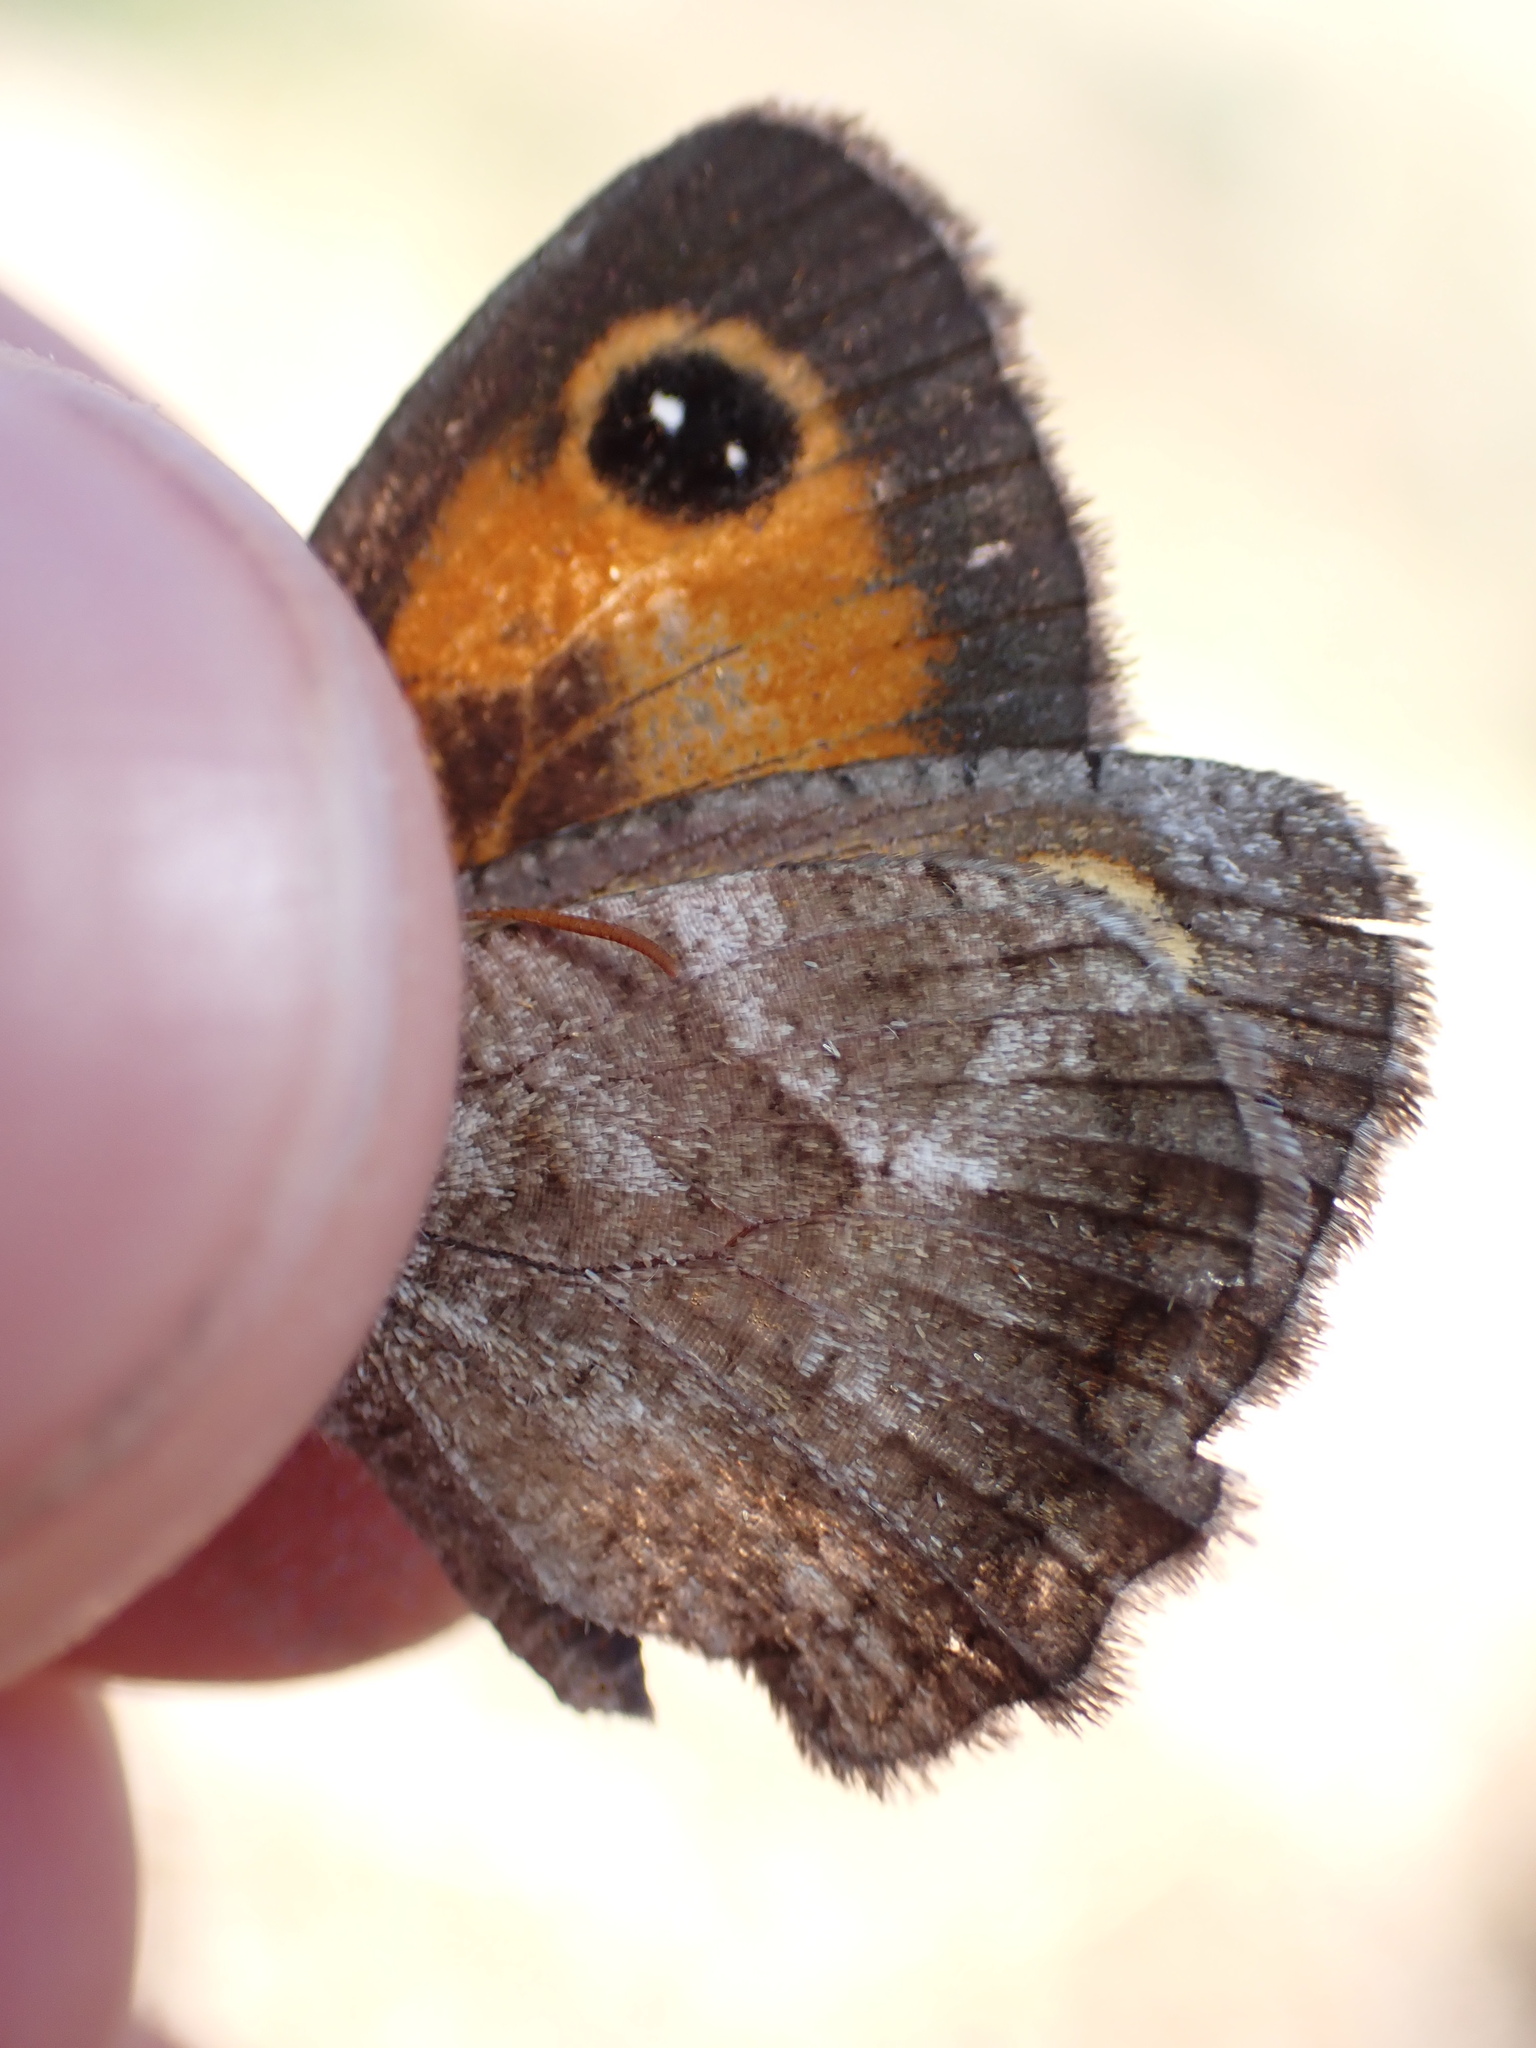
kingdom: Animalia
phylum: Arthropoda
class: Insecta
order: Lepidoptera
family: Nymphalidae
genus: Pyronia
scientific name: Pyronia cecilia
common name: Southern gatekeeper
